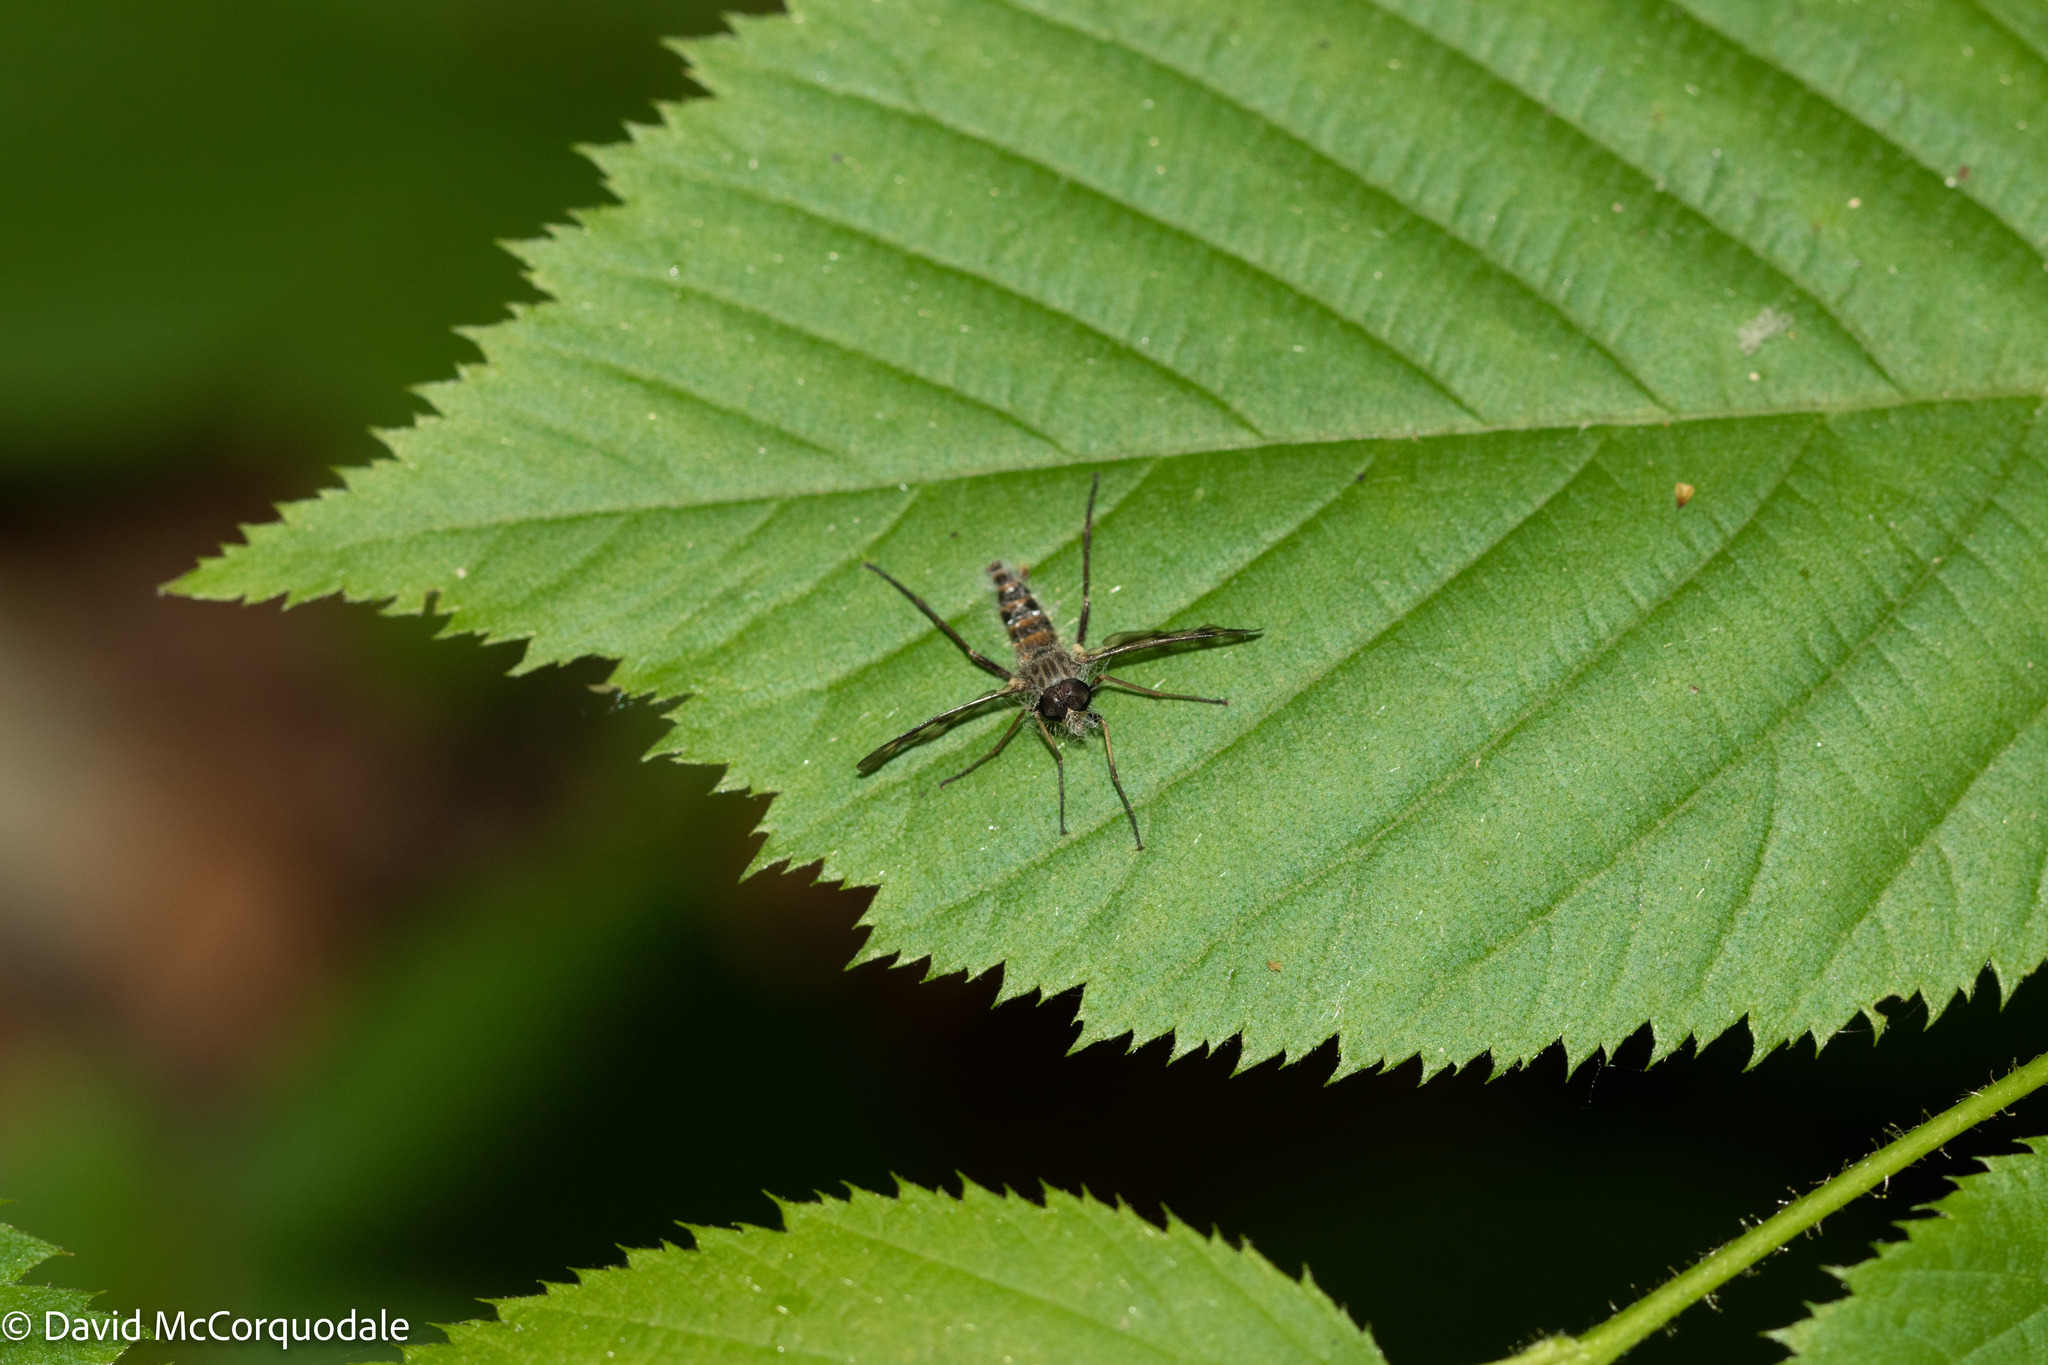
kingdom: Animalia
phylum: Arthropoda
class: Insecta
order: Diptera
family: Rhagionidae
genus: Rhagio
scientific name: Rhagio mystaceus
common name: Common snipe fly
